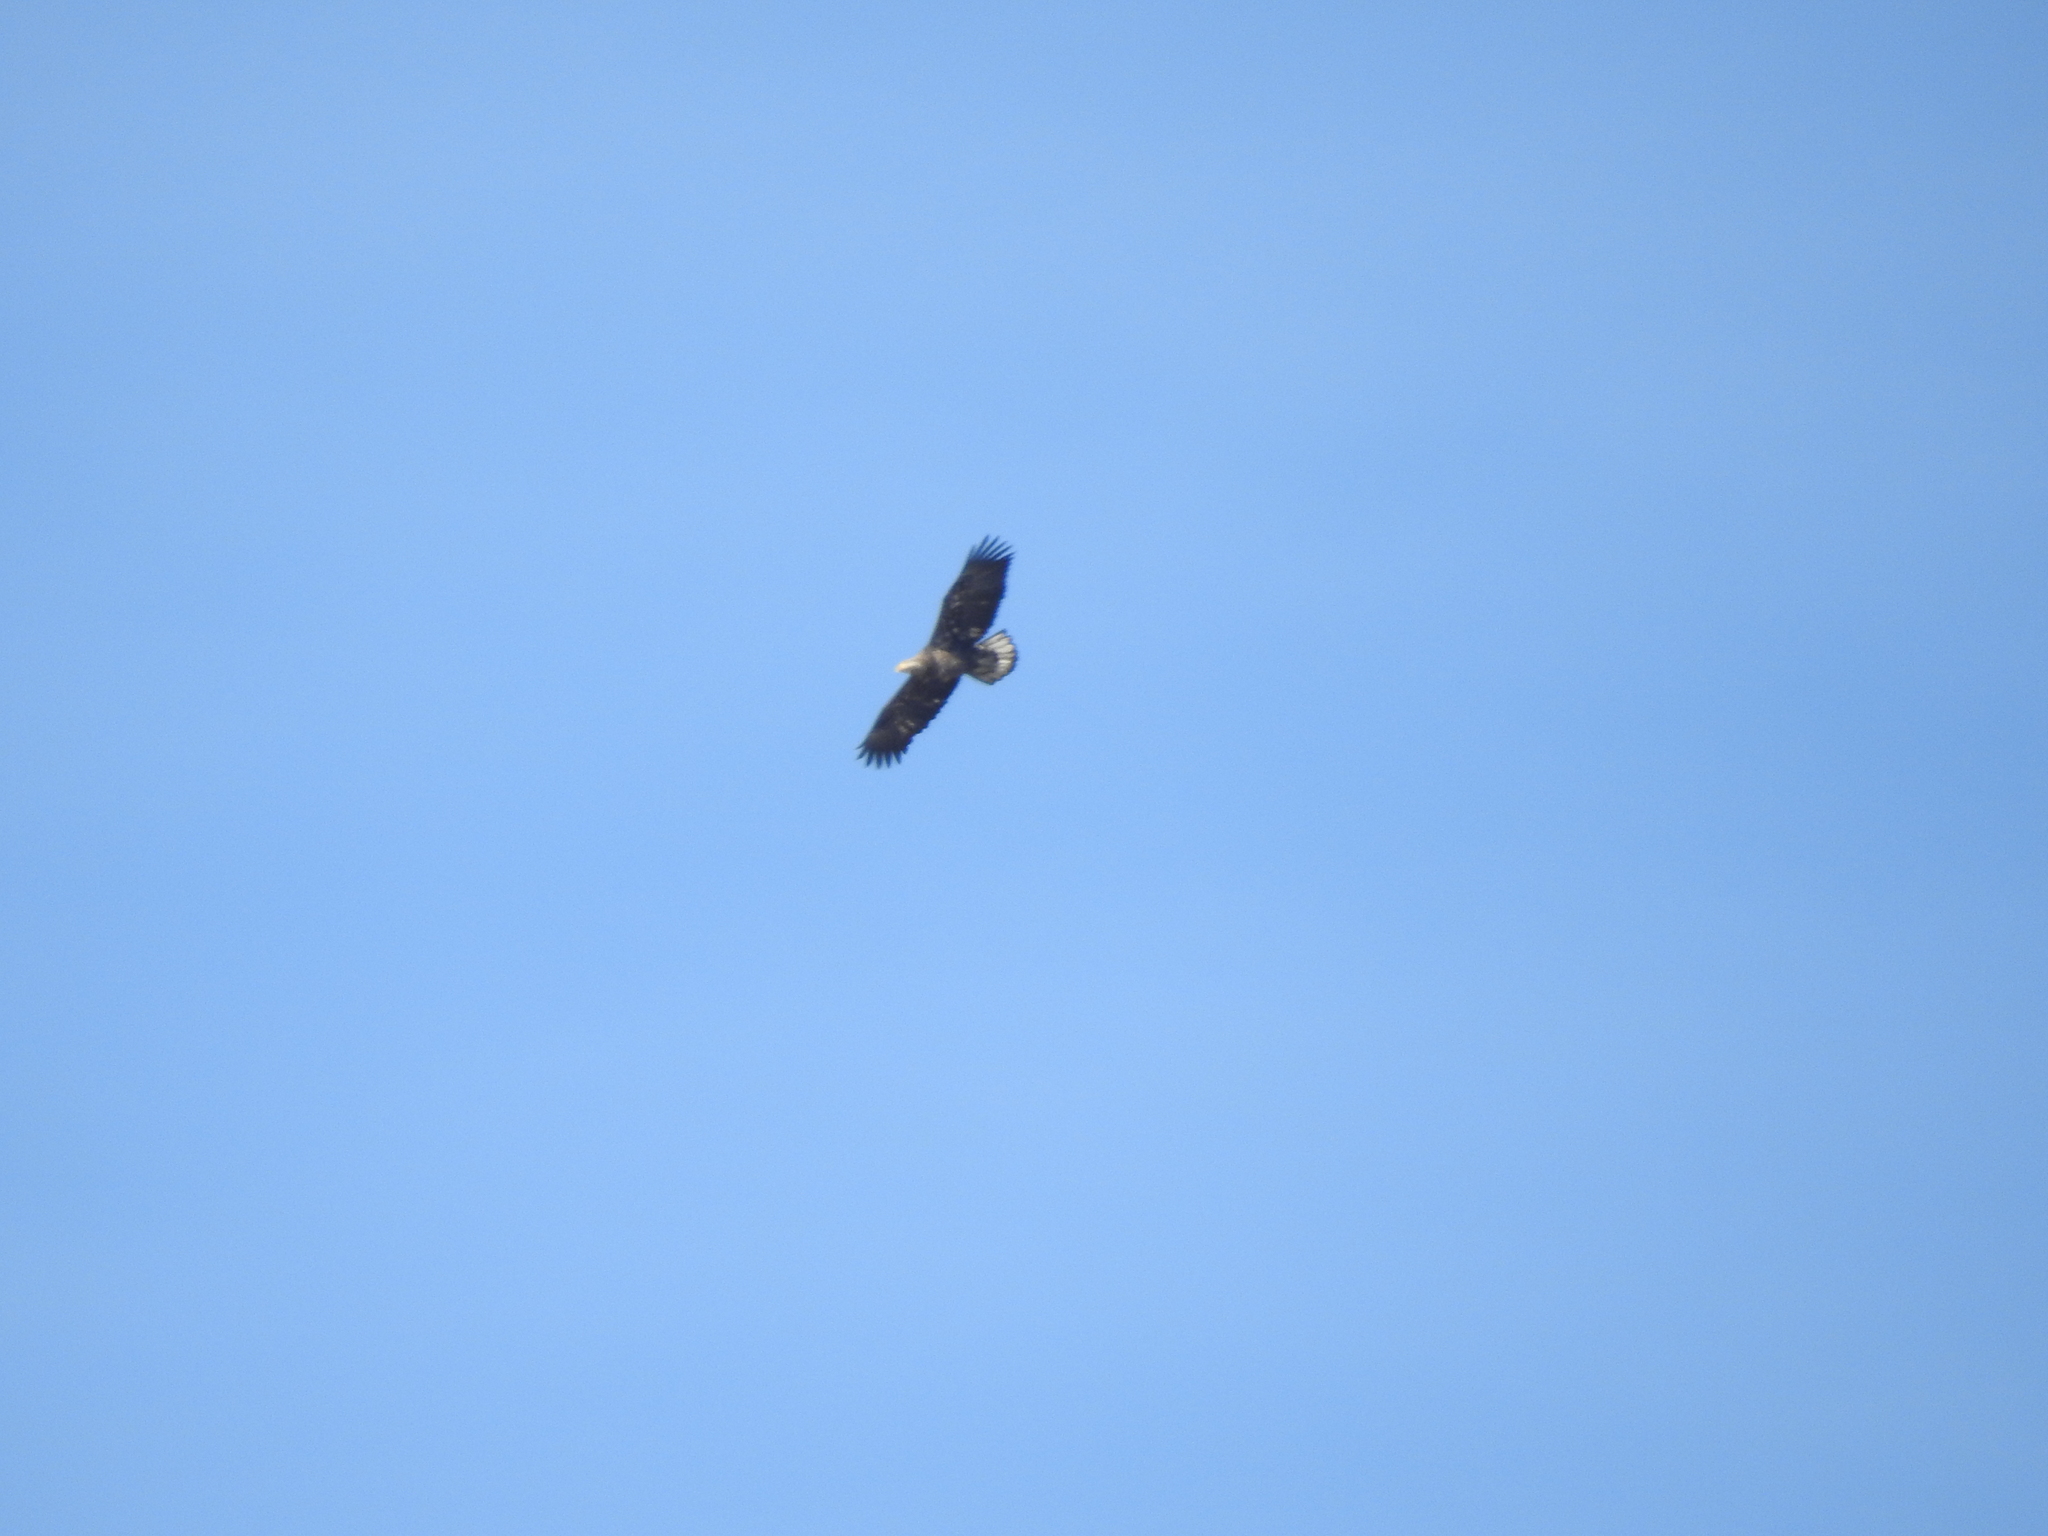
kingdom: Animalia
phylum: Chordata
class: Aves
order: Accipitriformes
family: Accipitridae
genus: Haliaeetus
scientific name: Haliaeetus leucocephalus
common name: Bald eagle
